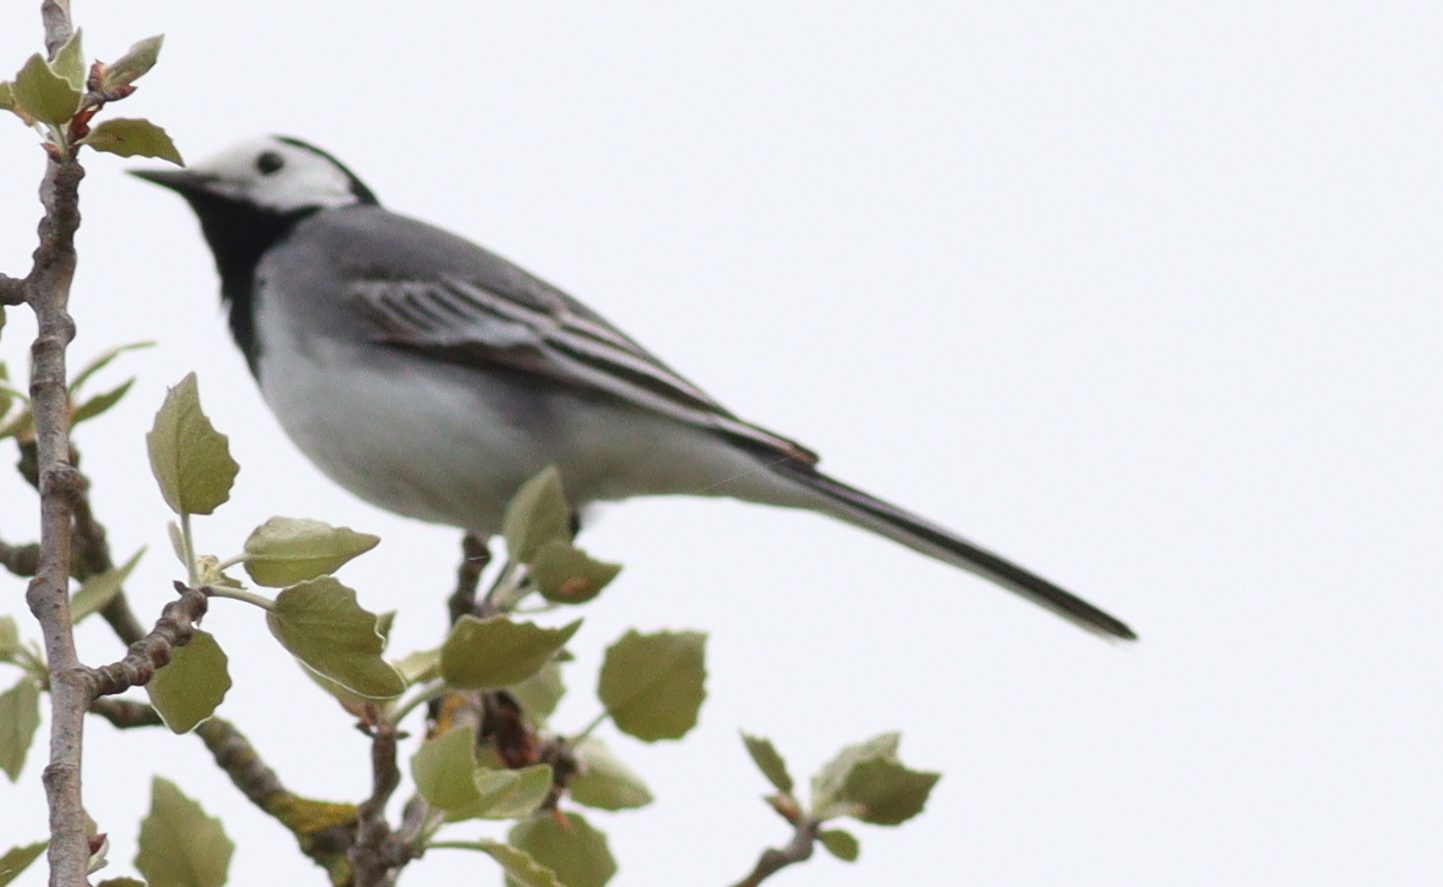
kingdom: Animalia
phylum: Chordata
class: Aves
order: Passeriformes
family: Motacillidae
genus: Motacilla
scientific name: Motacilla alba
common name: White wagtail
